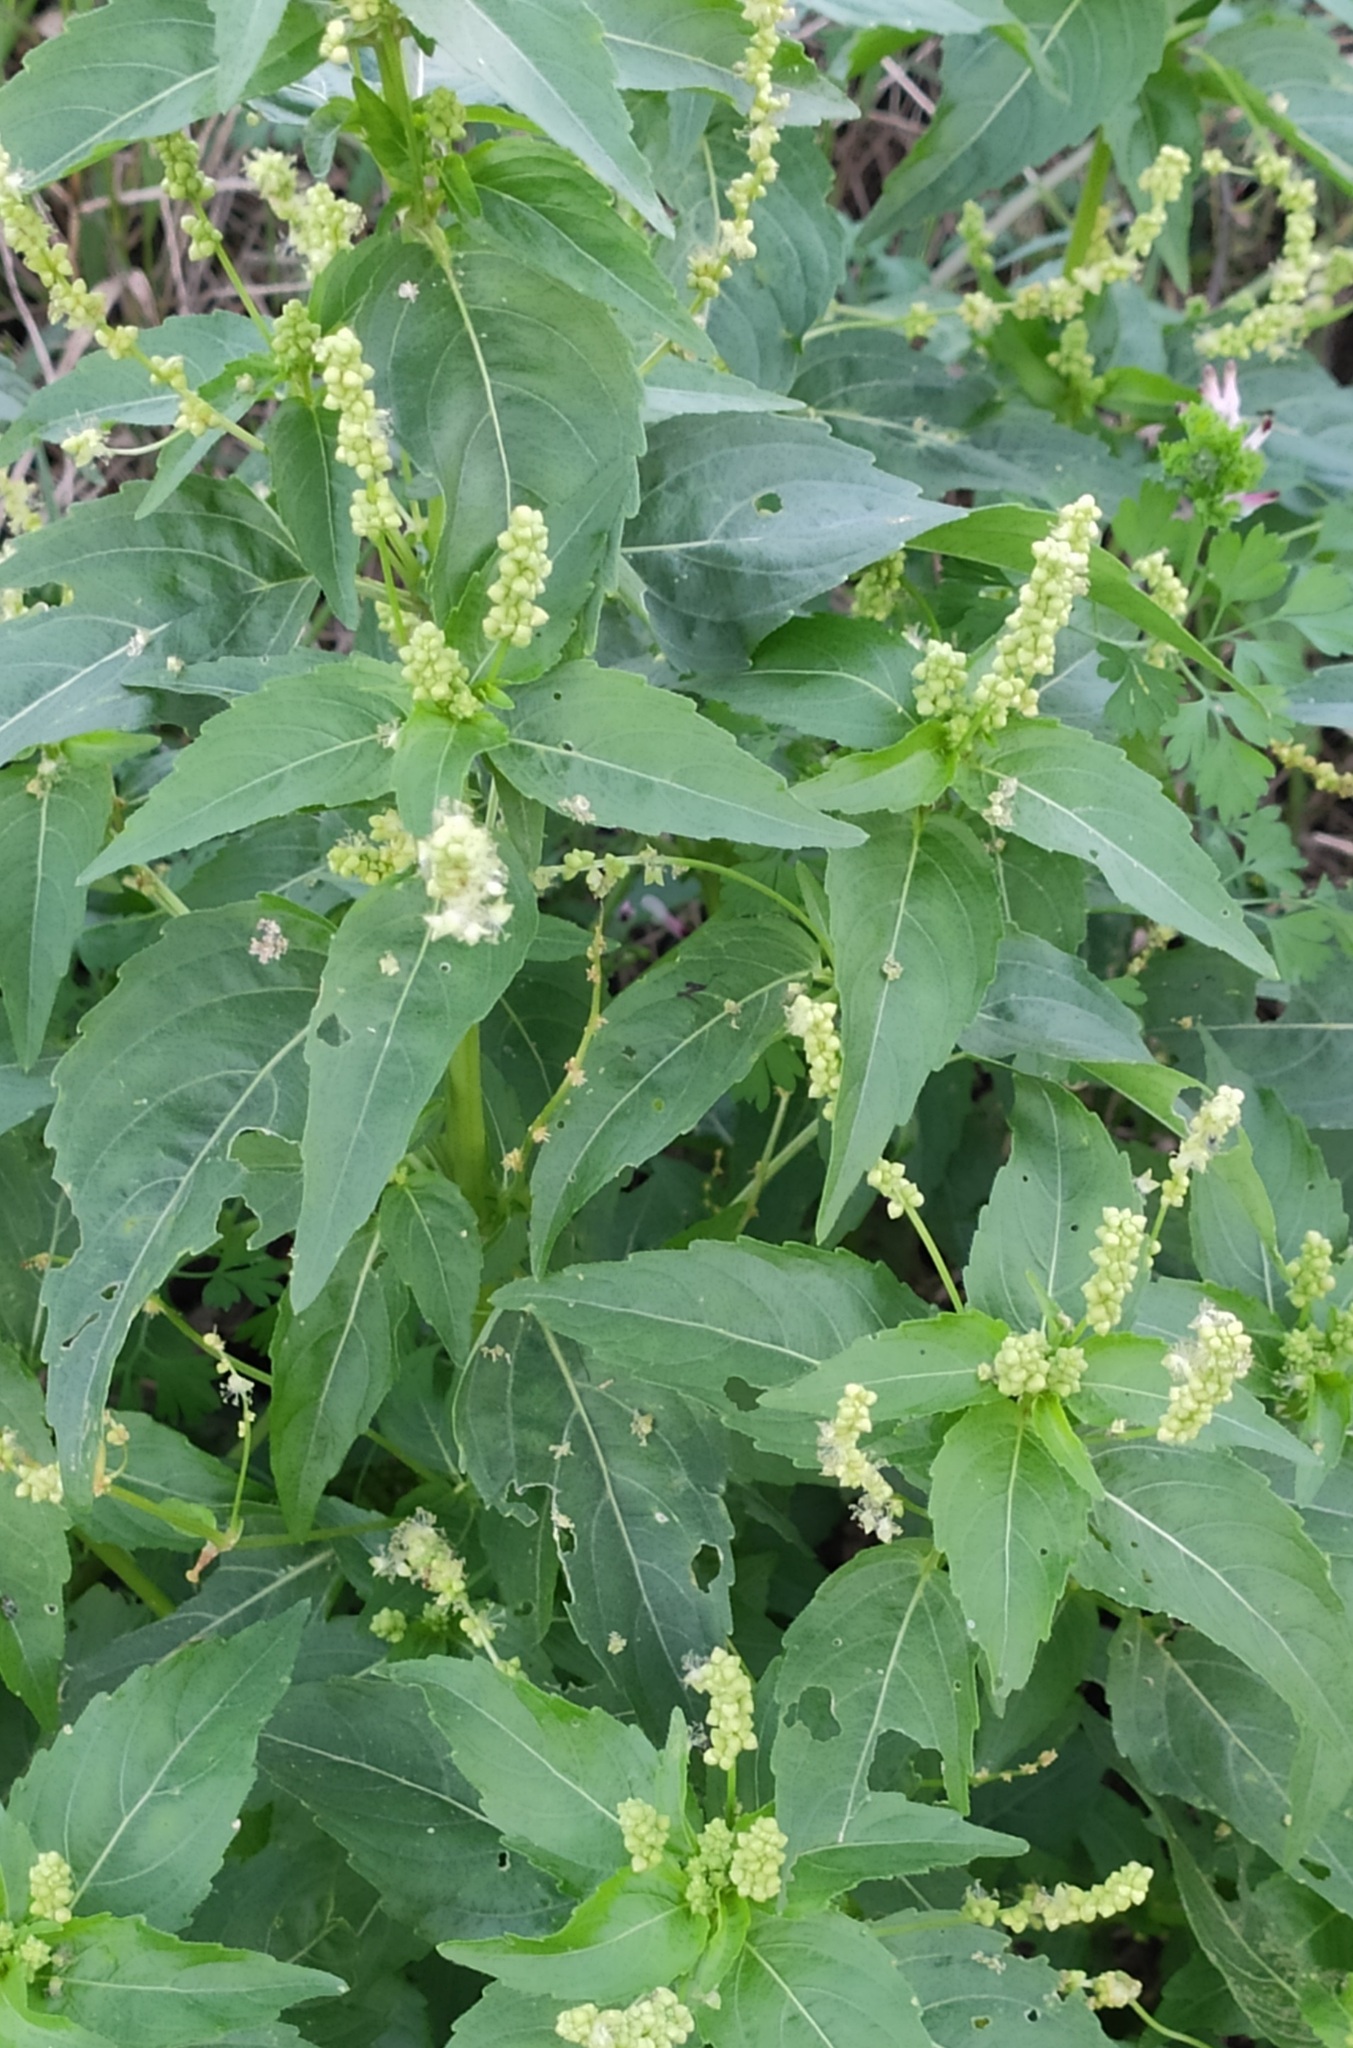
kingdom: Plantae
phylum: Tracheophyta
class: Magnoliopsida
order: Malpighiales
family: Euphorbiaceae
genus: Mercurialis
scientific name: Mercurialis annua
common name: Annual mercury
